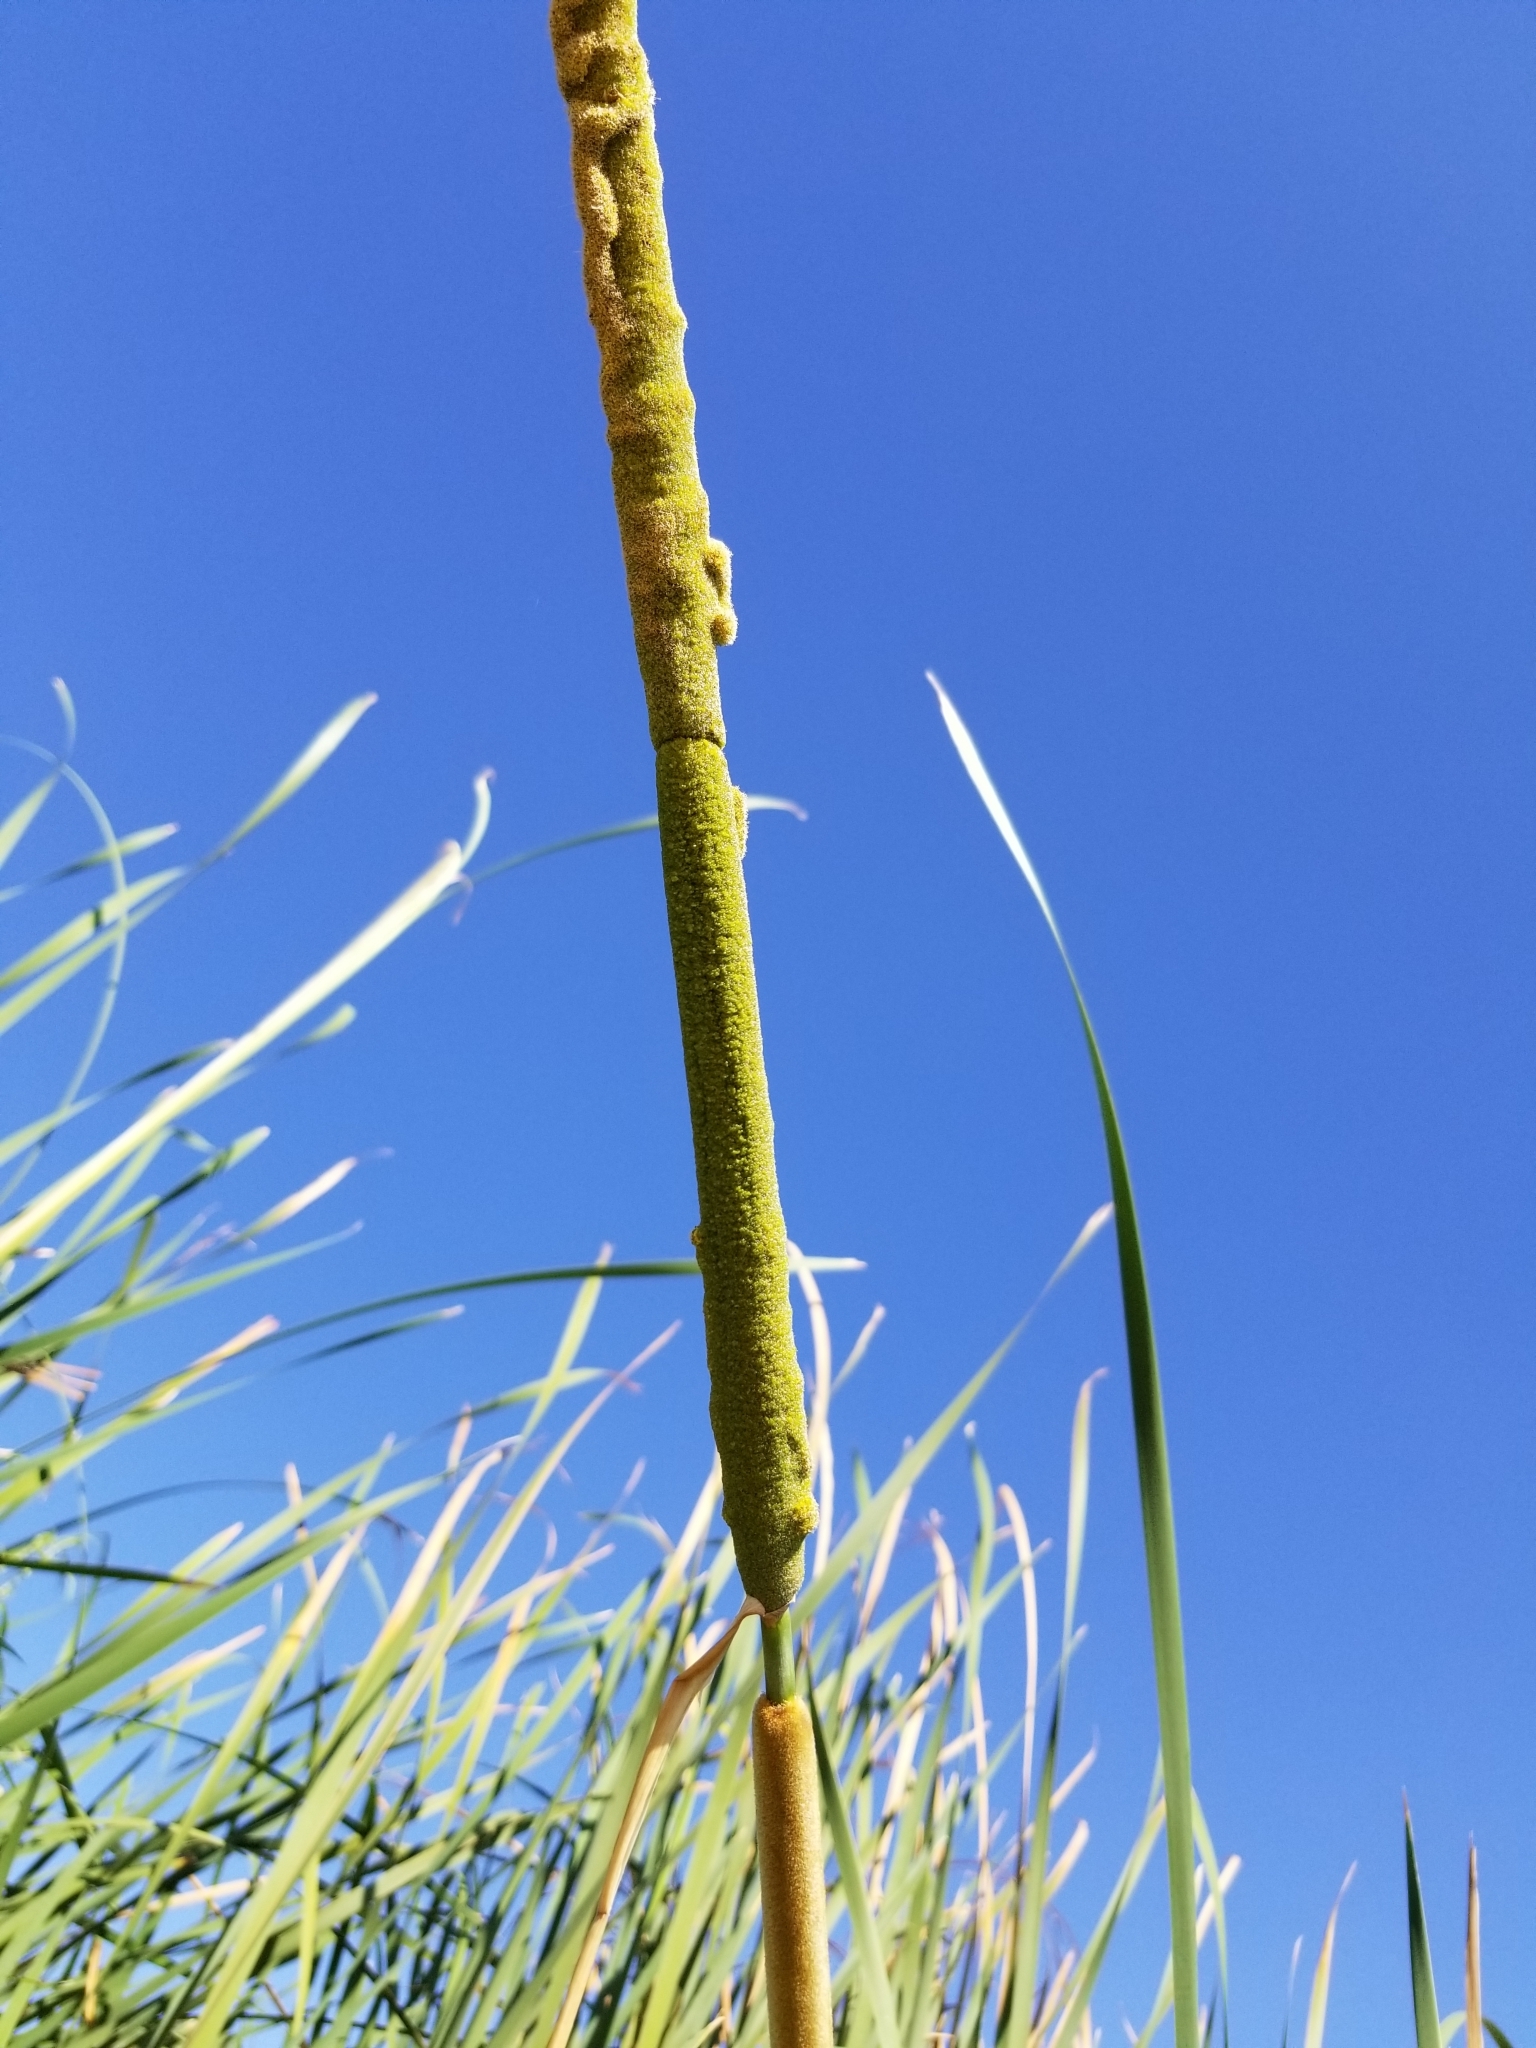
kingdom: Plantae
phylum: Tracheophyta
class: Liliopsida
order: Poales
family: Typhaceae
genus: Typha
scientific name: Typha domingensis
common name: Southern cattail
